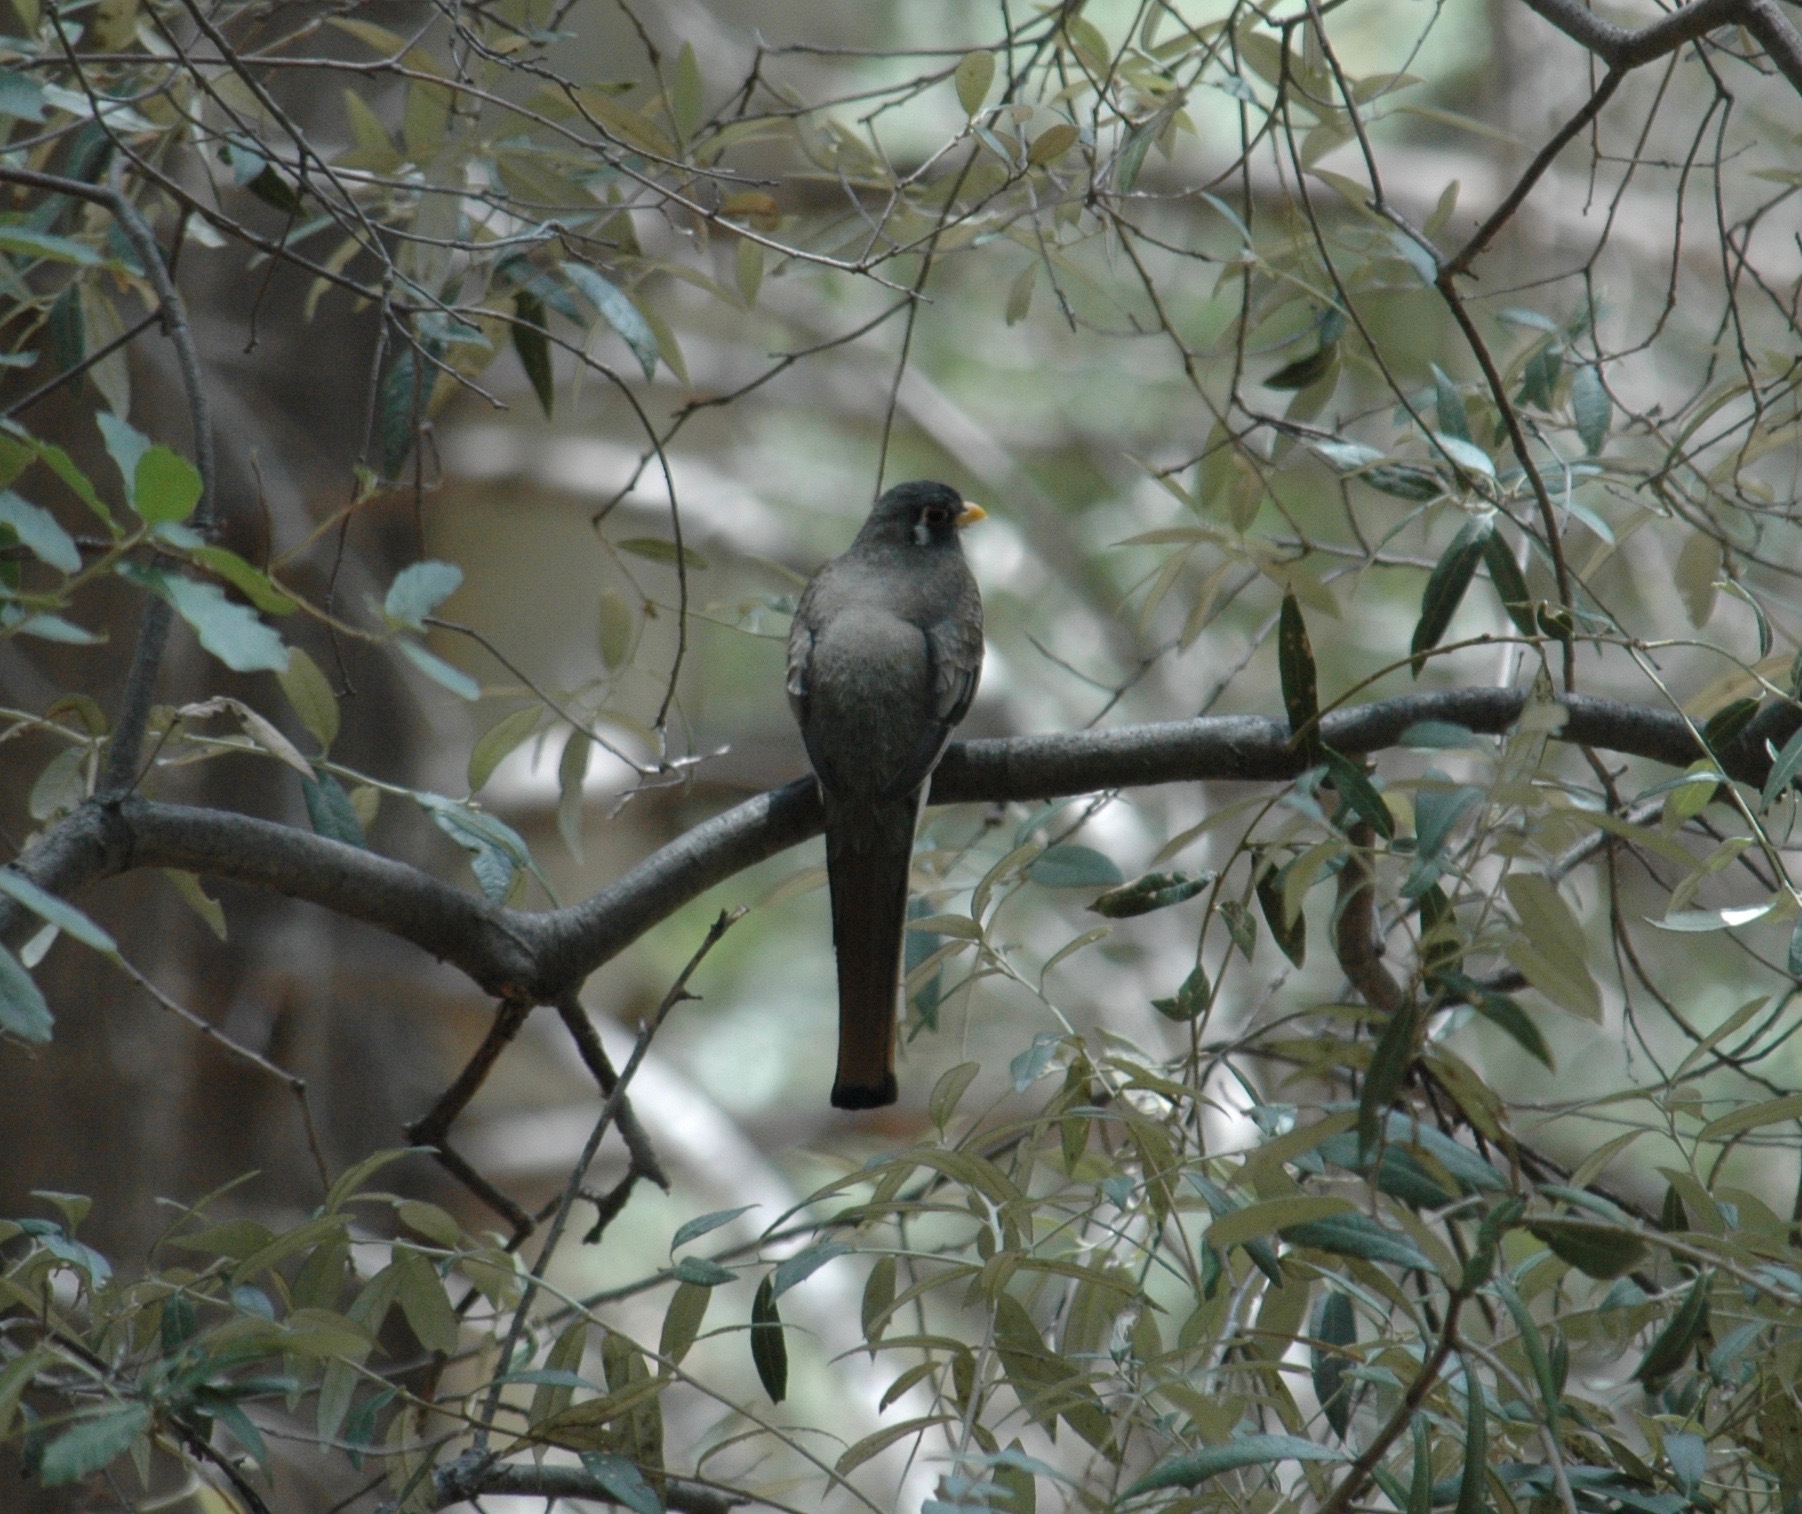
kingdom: Animalia
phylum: Chordata
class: Aves
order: Trogoniformes
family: Trogonidae
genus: Trogon
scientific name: Trogon elegans
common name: Elegant trogon
